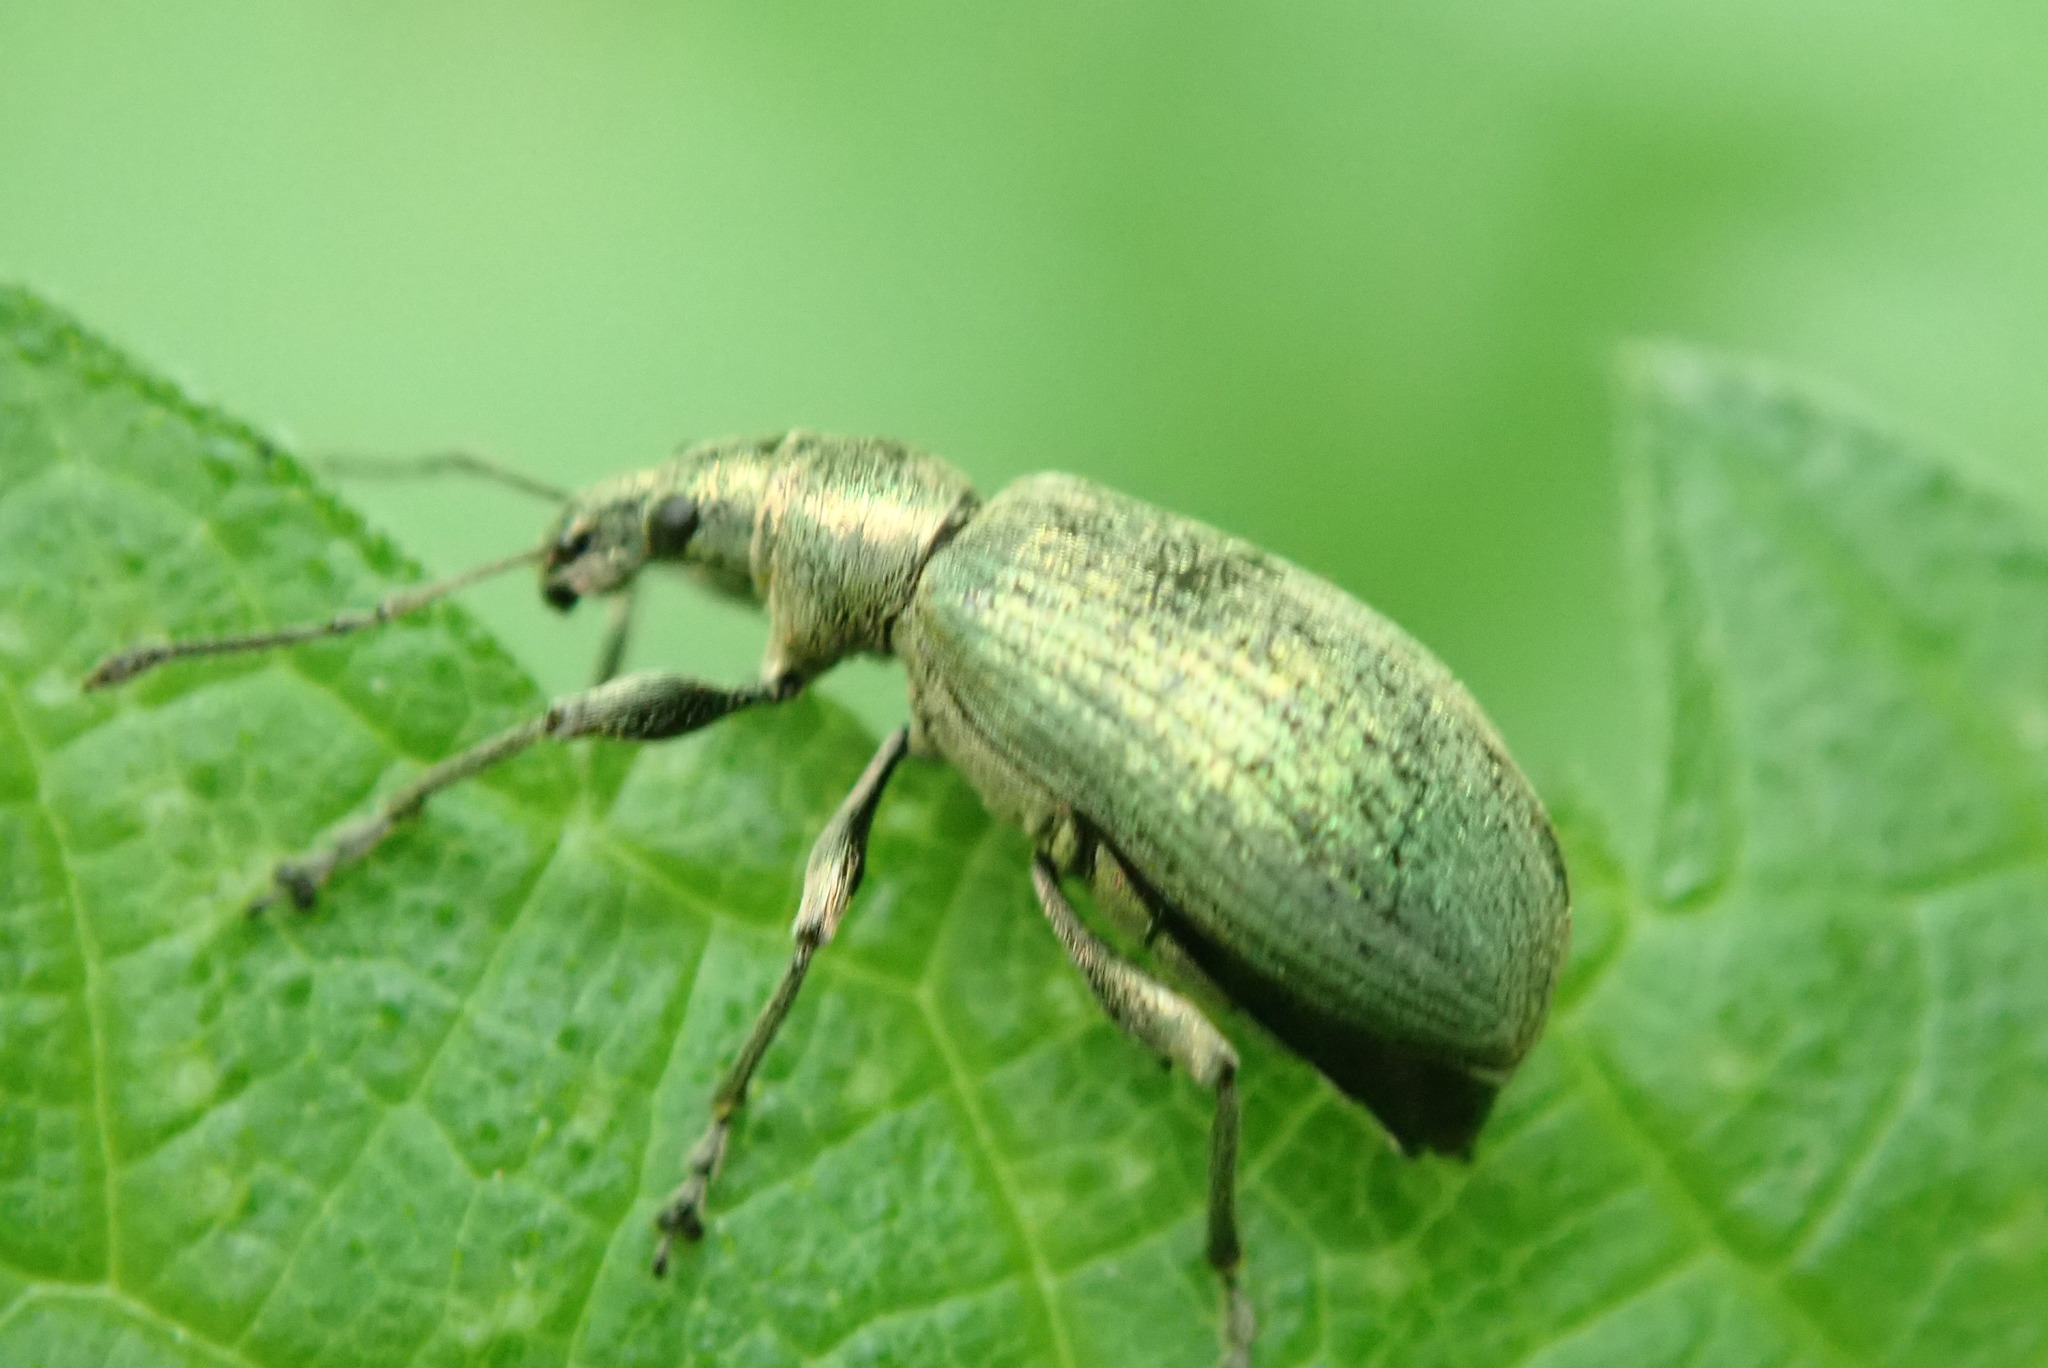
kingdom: Animalia
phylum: Arthropoda
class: Insecta
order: Coleoptera
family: Curculionidae
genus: Phyllobius
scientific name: Phyllobius pomaceus
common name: Green nettle weevil
